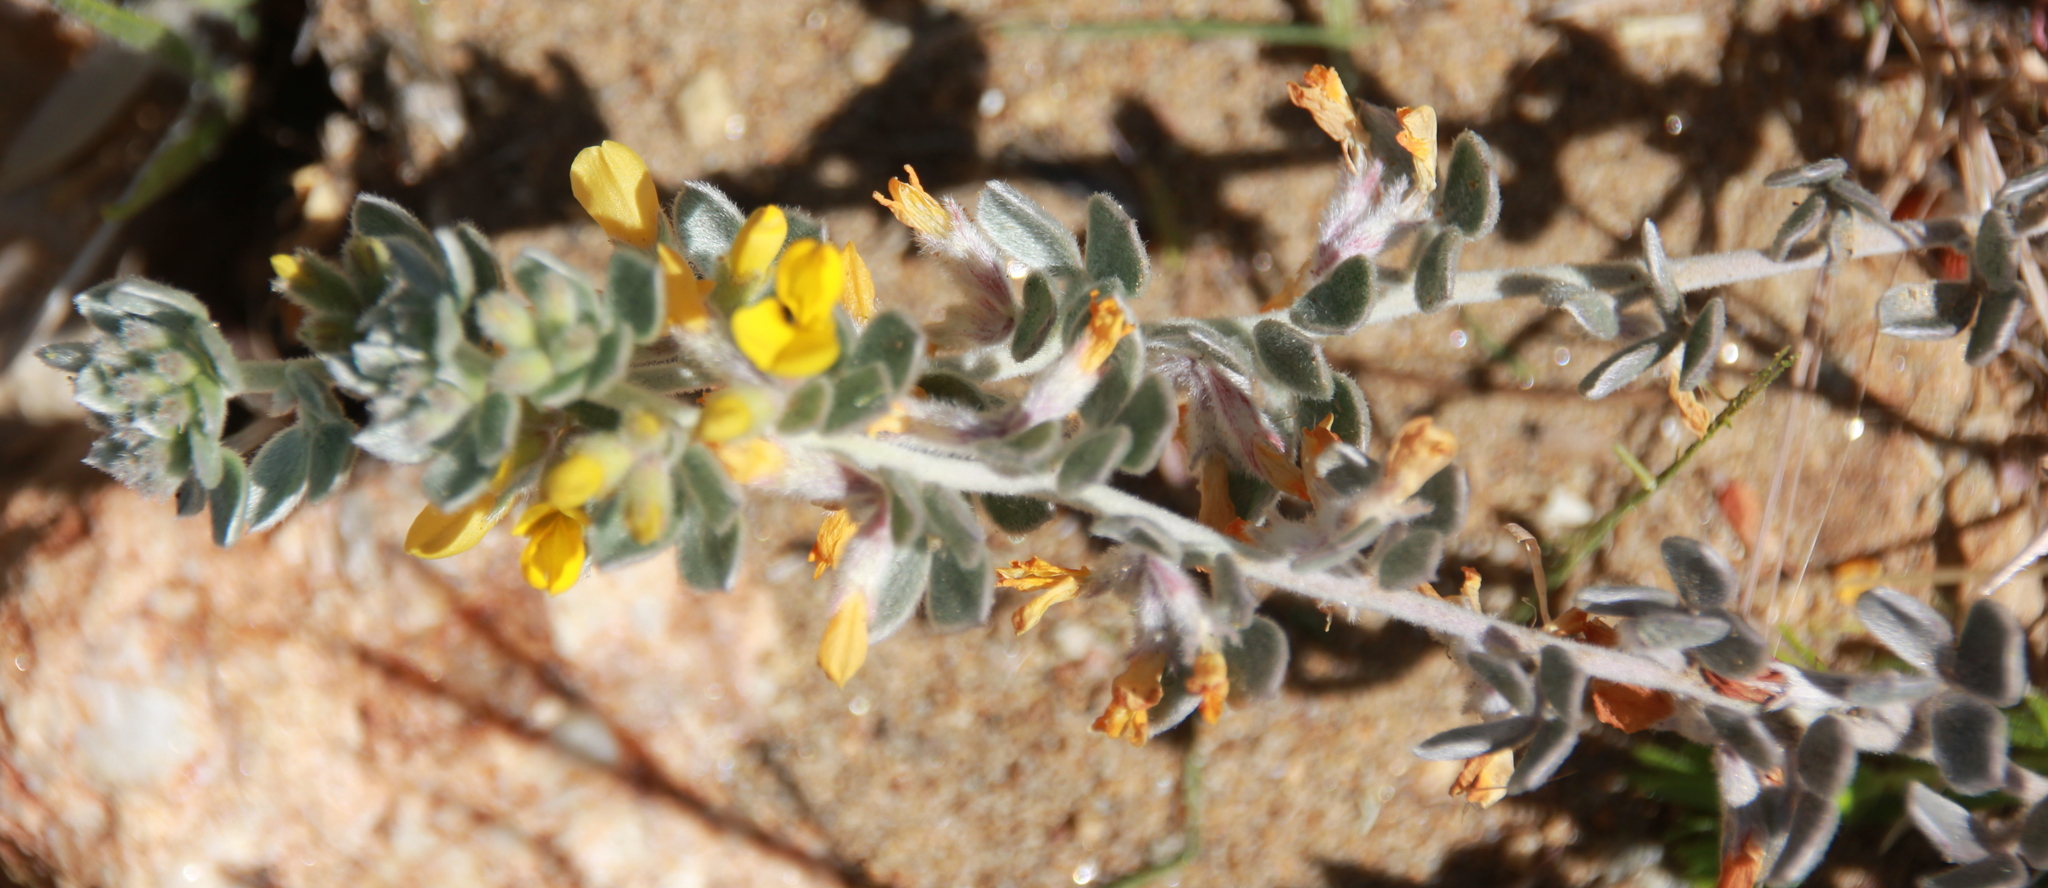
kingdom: Plantae
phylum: Tracheophyta
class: Magnoliopsida
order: Fabales
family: Fabaceae
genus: Acmispon
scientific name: Acmispon argophyllus
